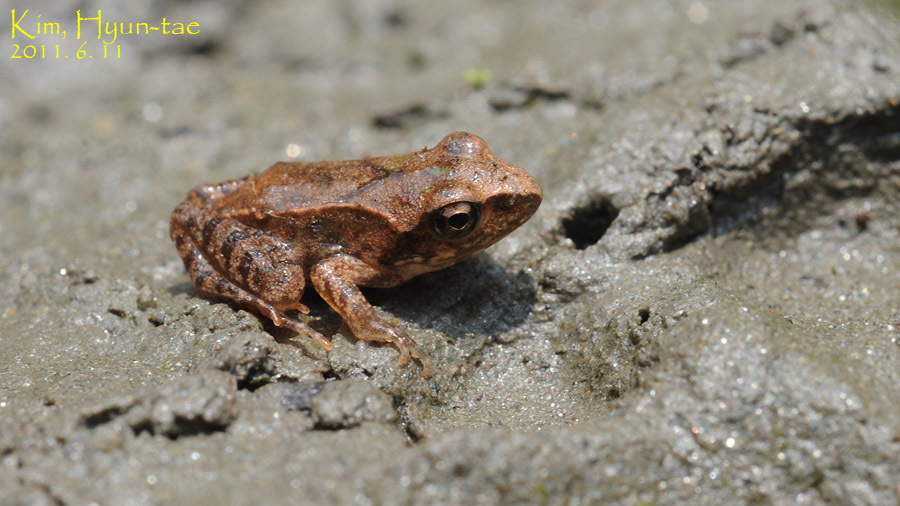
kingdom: Animalia
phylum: Chordata
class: Amphibia
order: Anura
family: Ranidae
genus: Rana
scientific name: Rana uenoi
